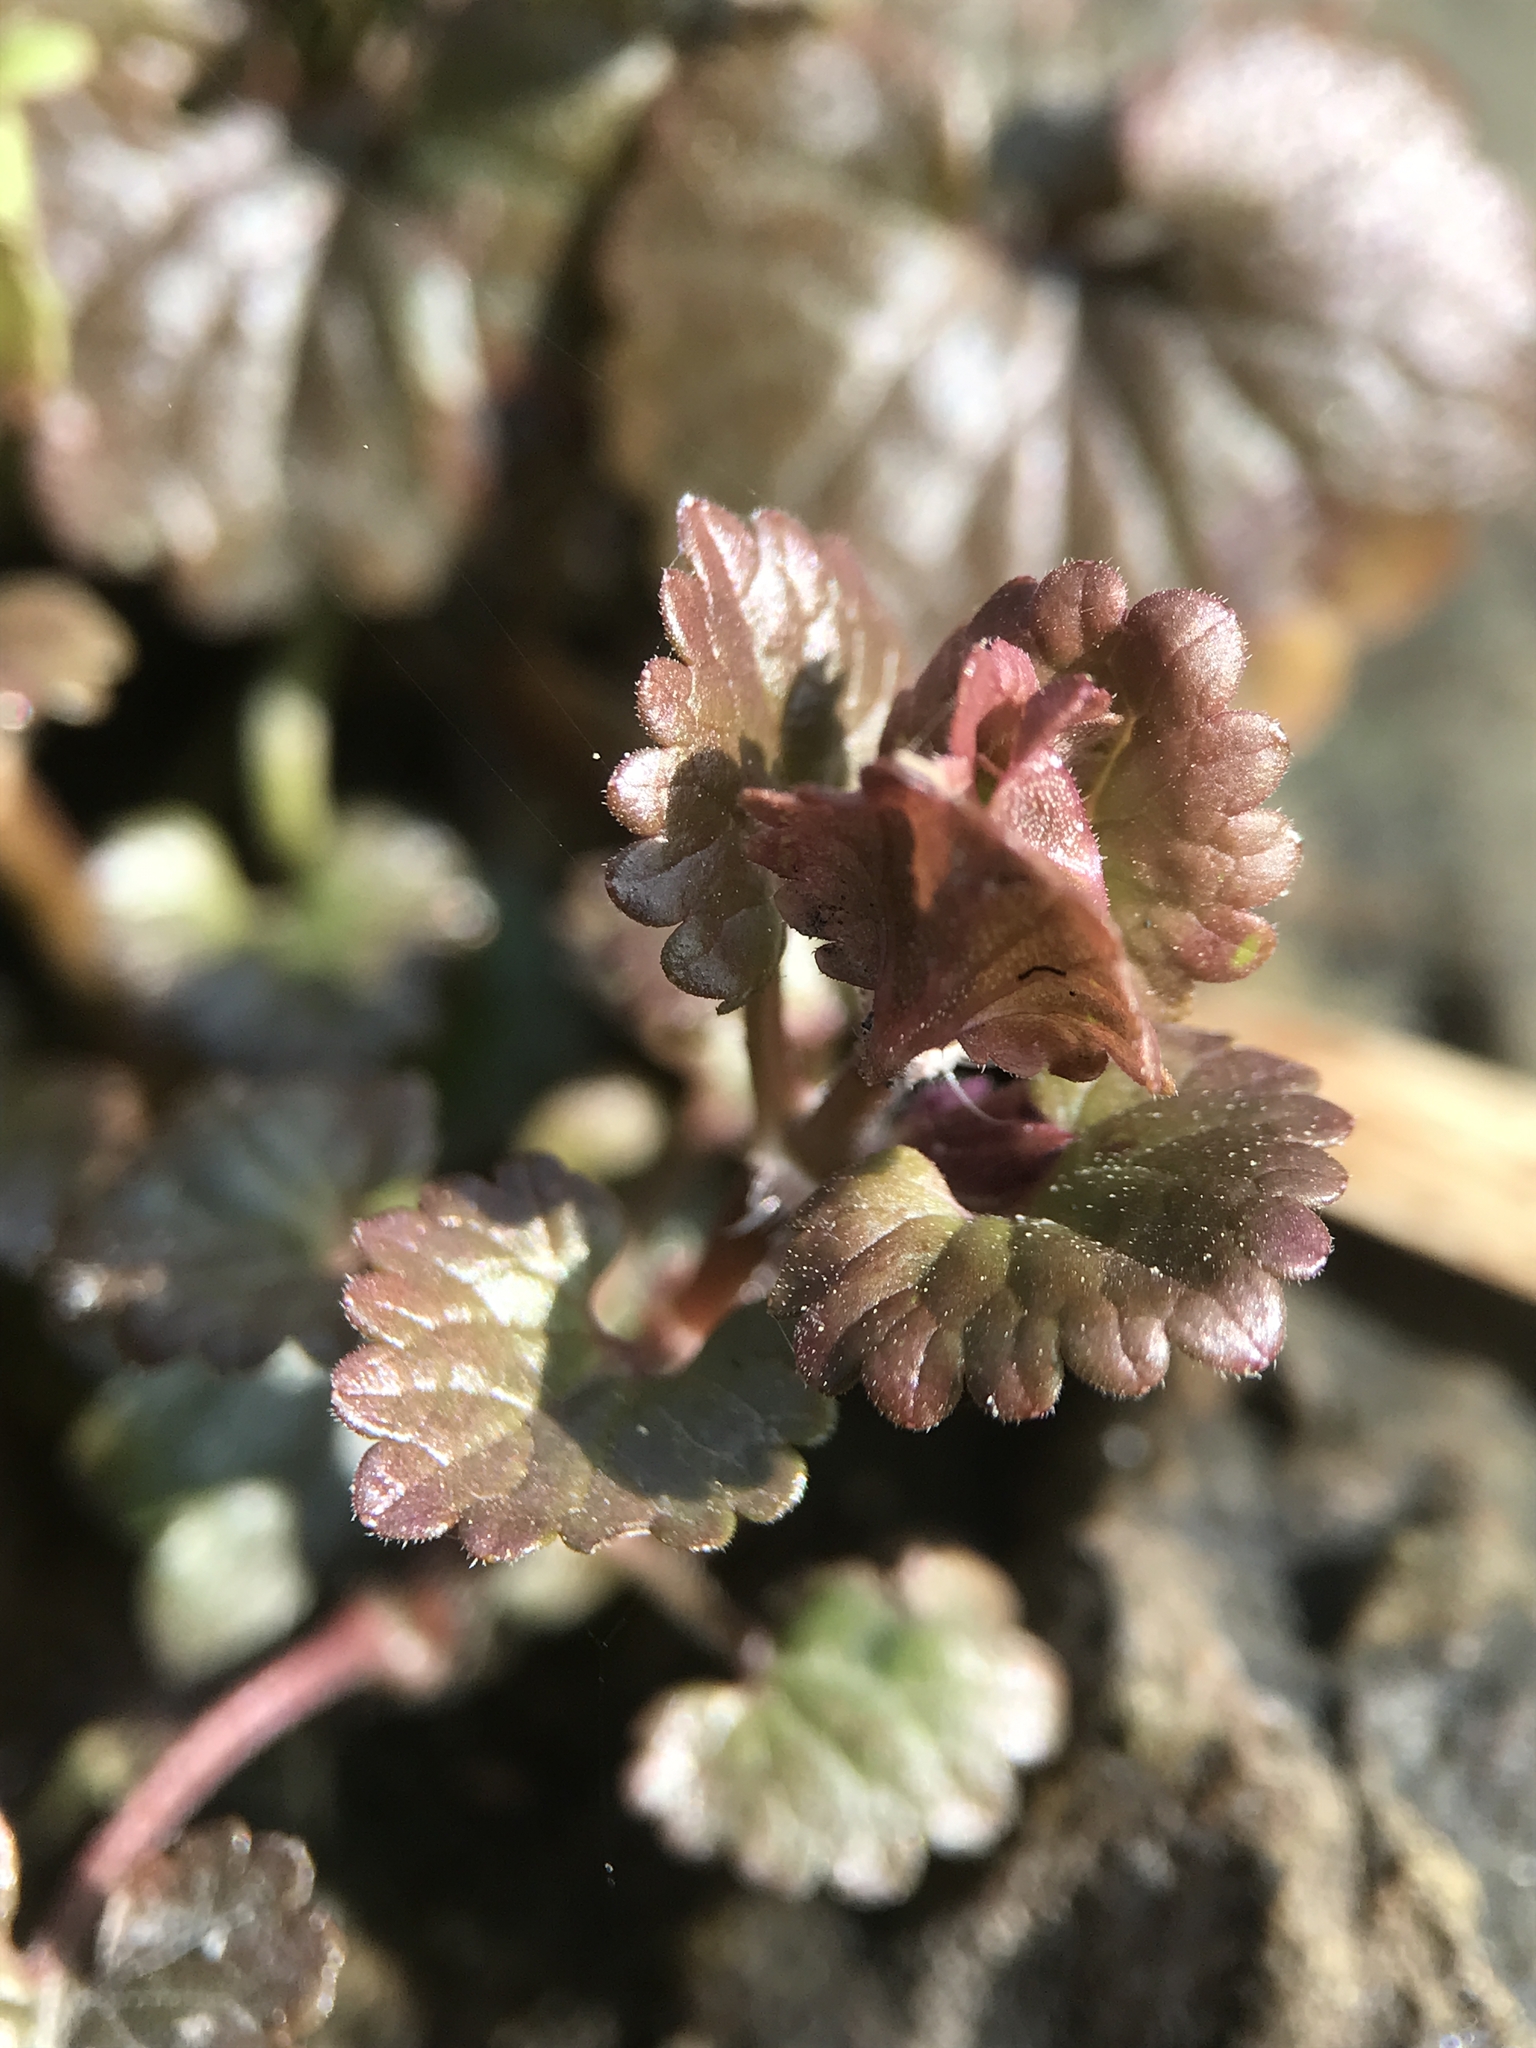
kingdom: Plantae
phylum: Tracheophyta
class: Magnoliopsida
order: Lamiales
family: Lamiaceae
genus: Glechoma
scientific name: Glechoma hederacea
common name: Ground ivy
